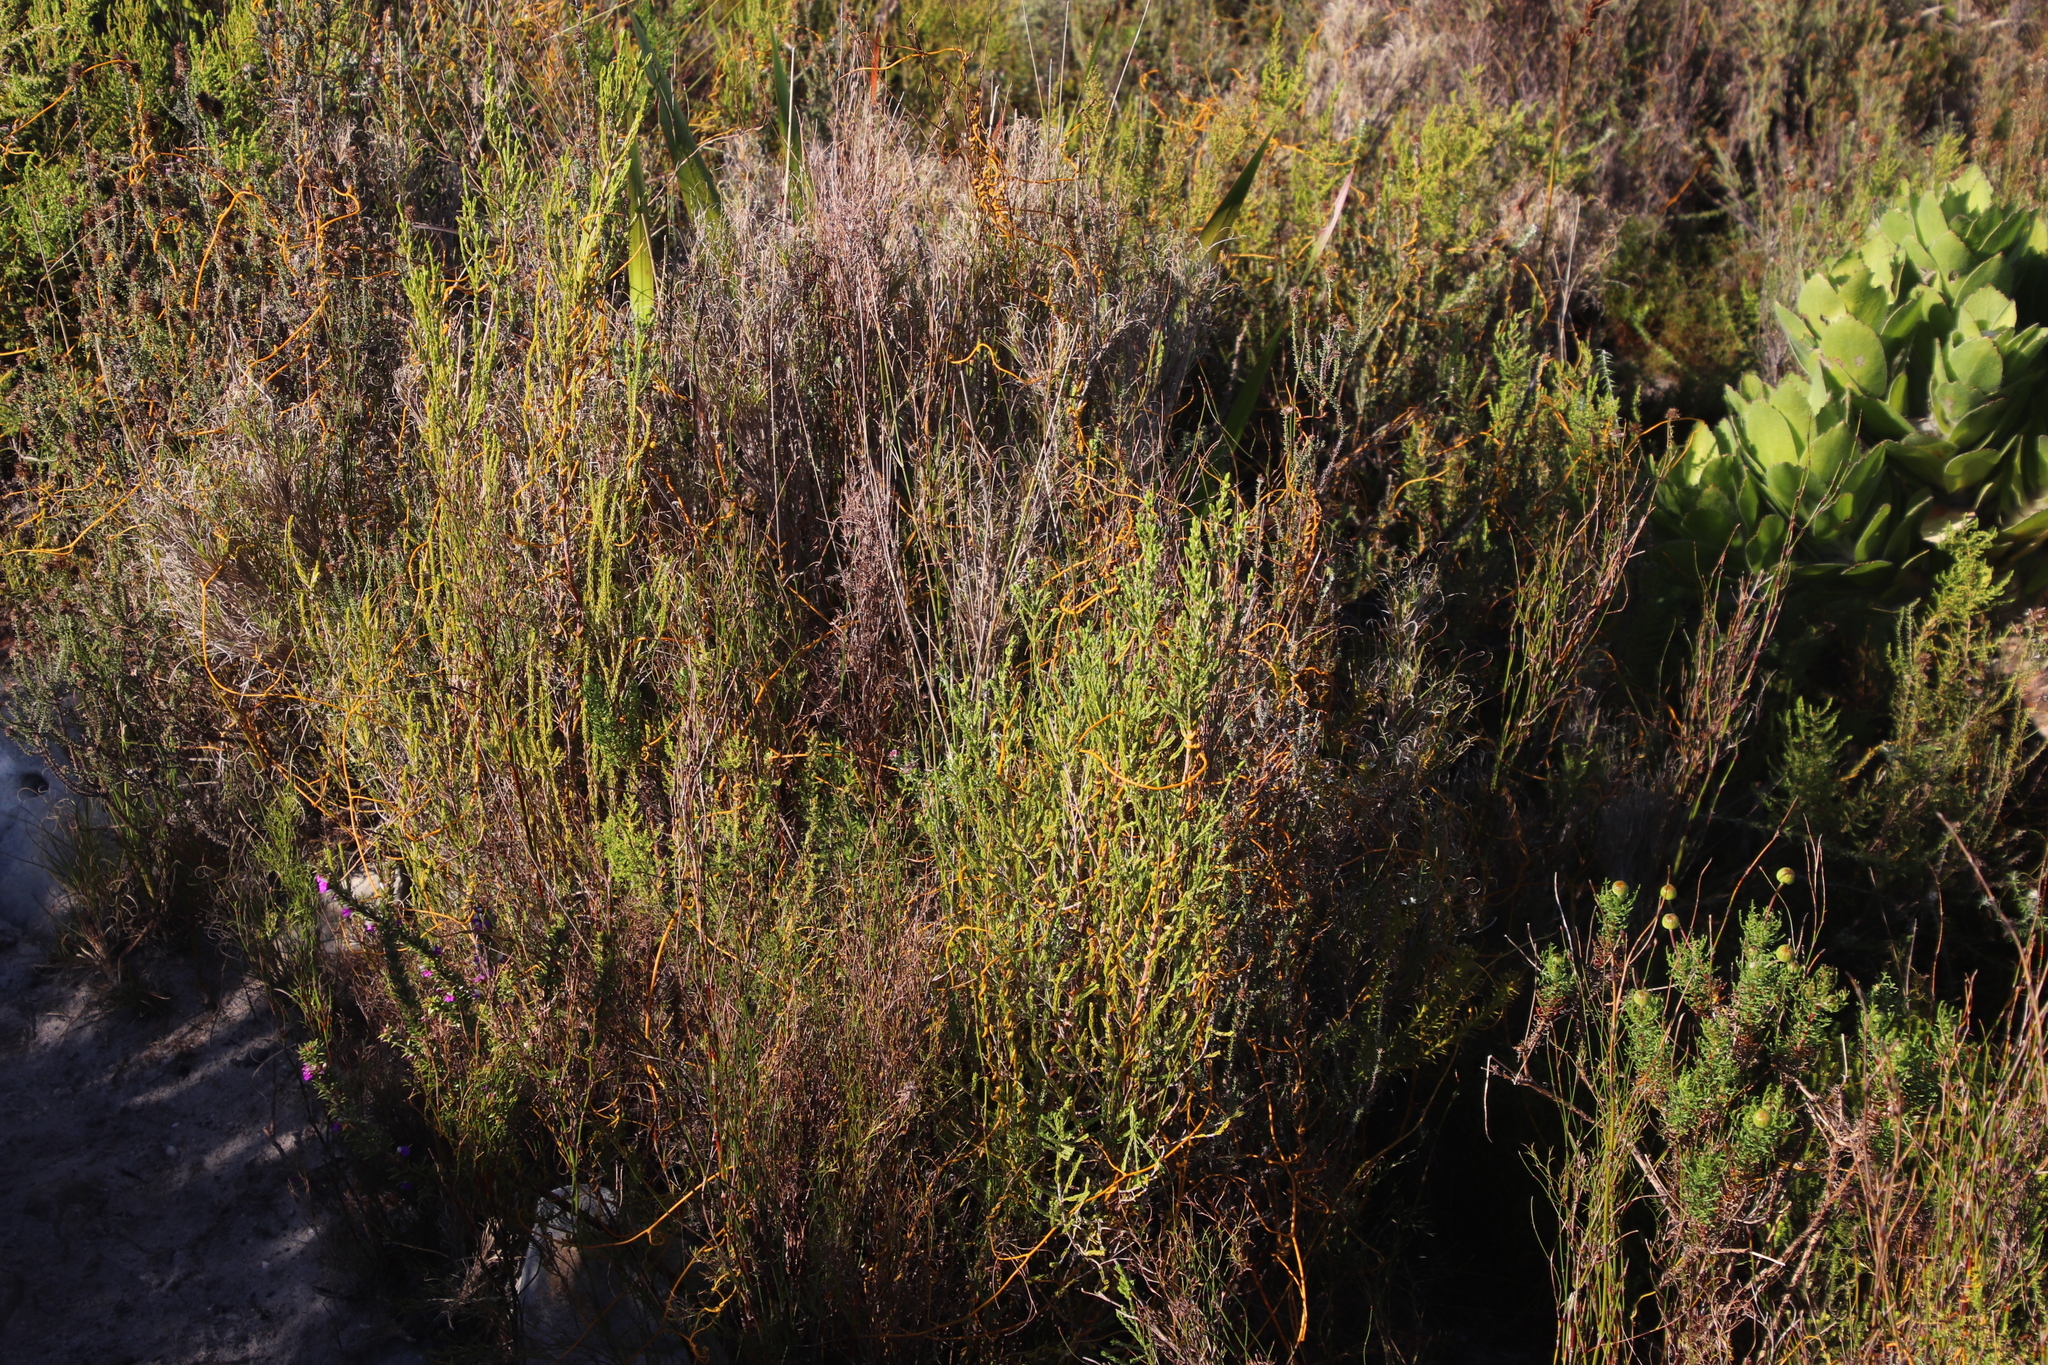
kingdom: Plantae
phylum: Tracheophyta
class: Magnoliopsida
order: Malvales
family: Thymelaeaceae
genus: Passerina
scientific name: Passerina corymbosa
